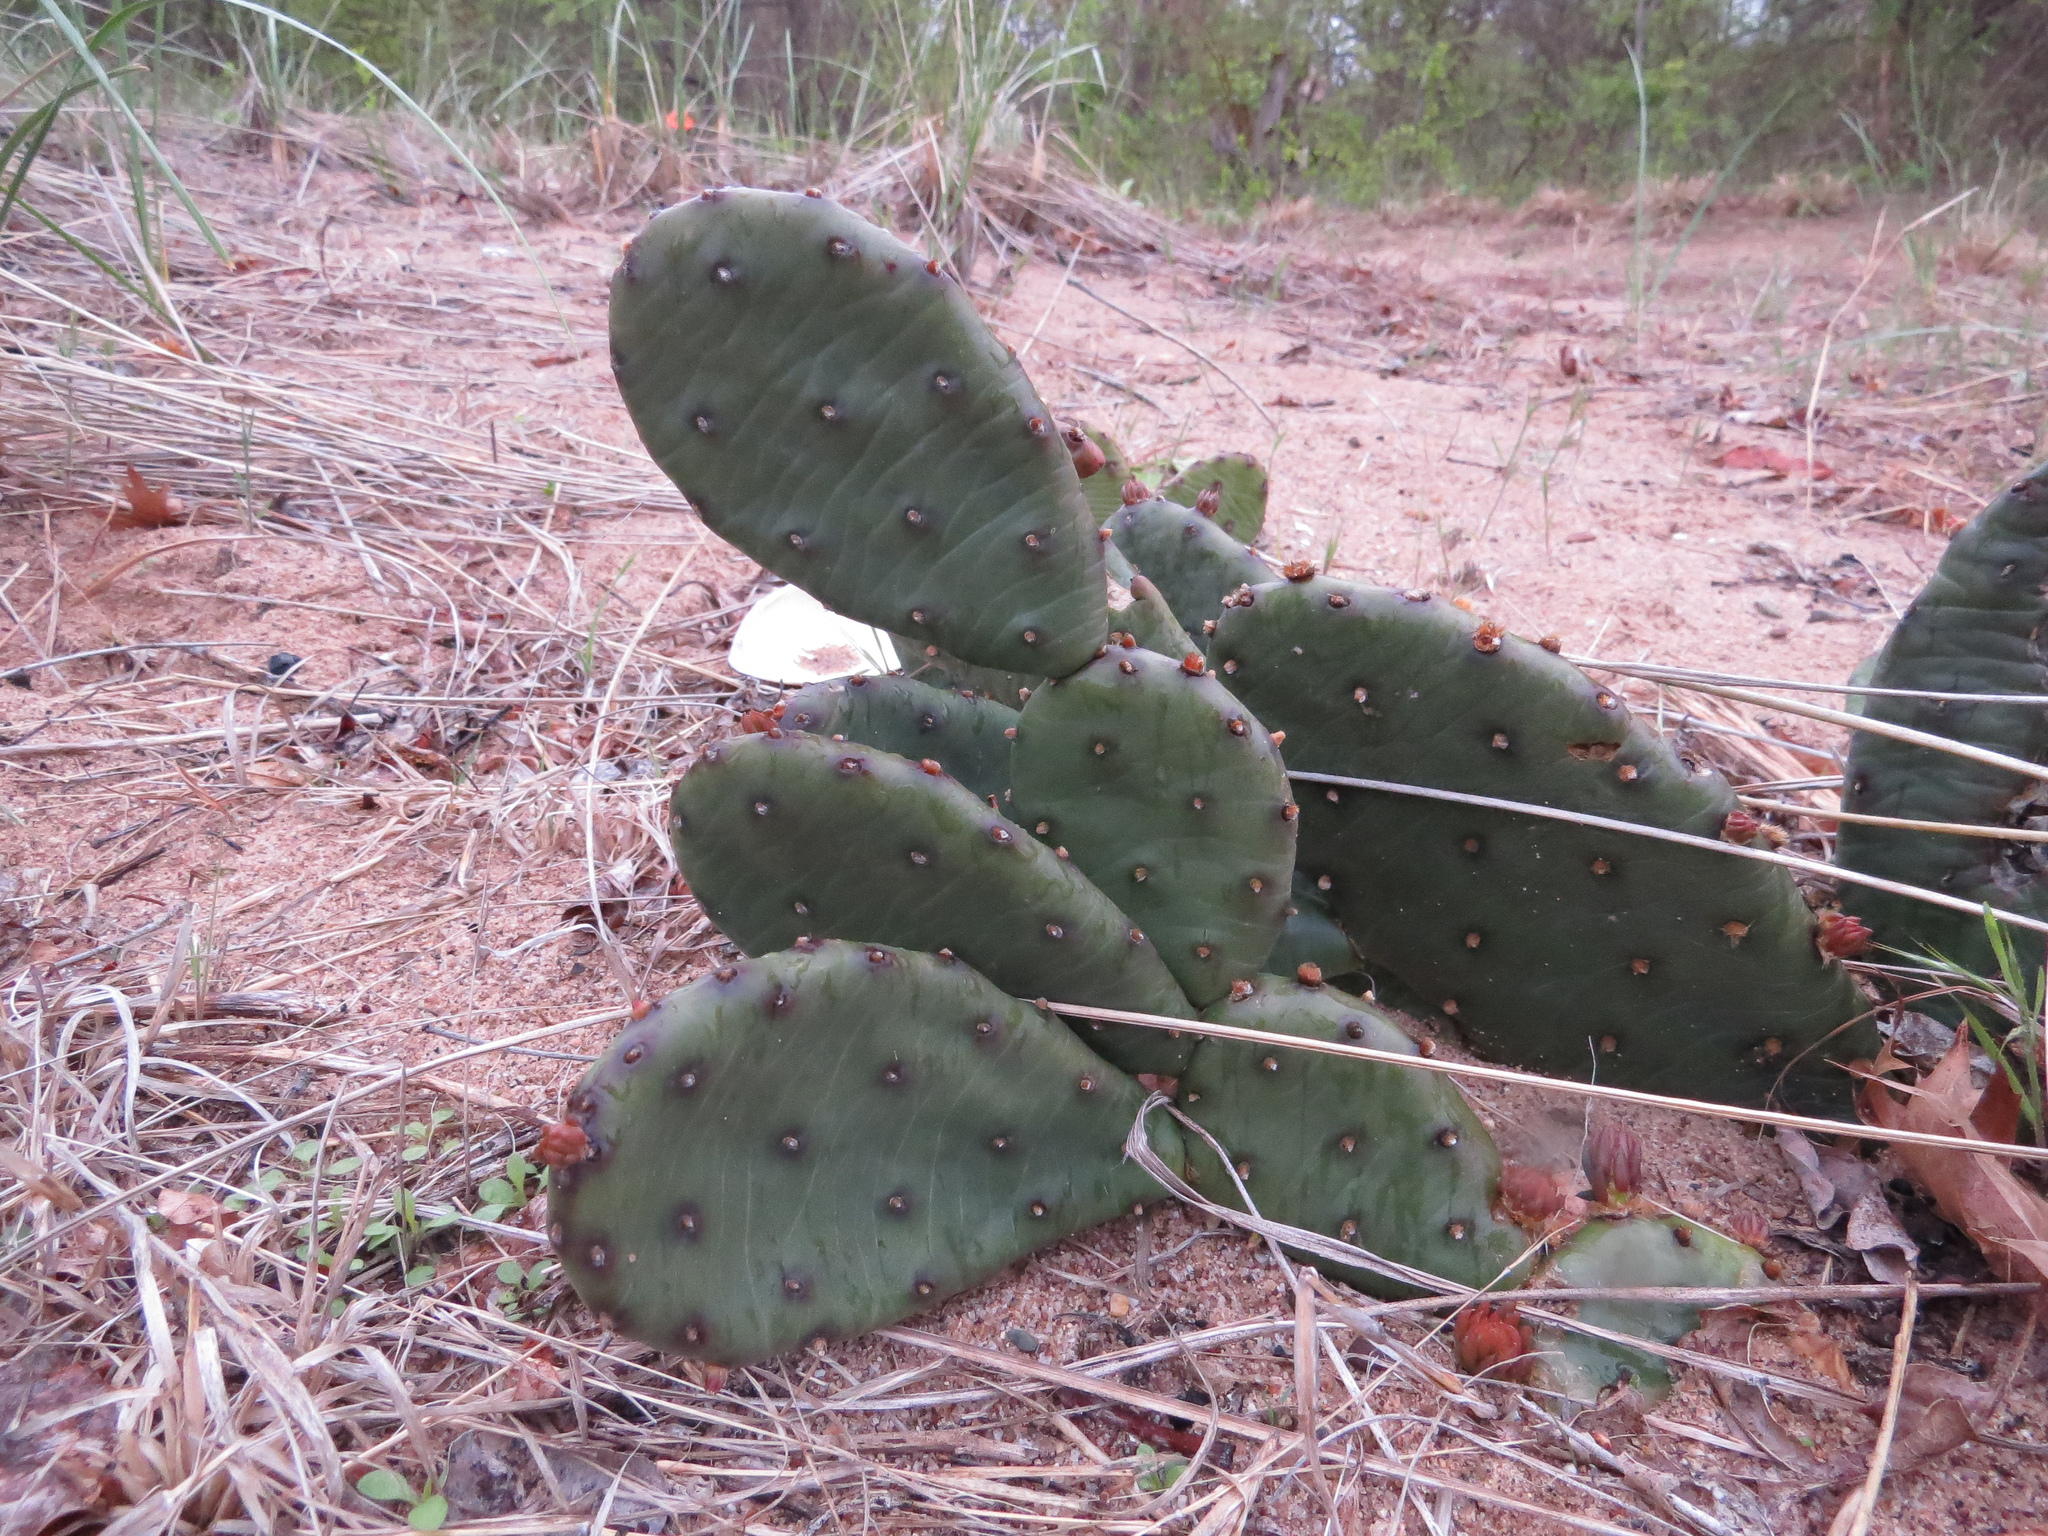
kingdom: Plantae
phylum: Tracheophyta
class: Magnoliopsida
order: Caryophyllales
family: Cactaceae
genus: Opuntia
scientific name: Opuntia humifusa
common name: Eastern prickly-pear
